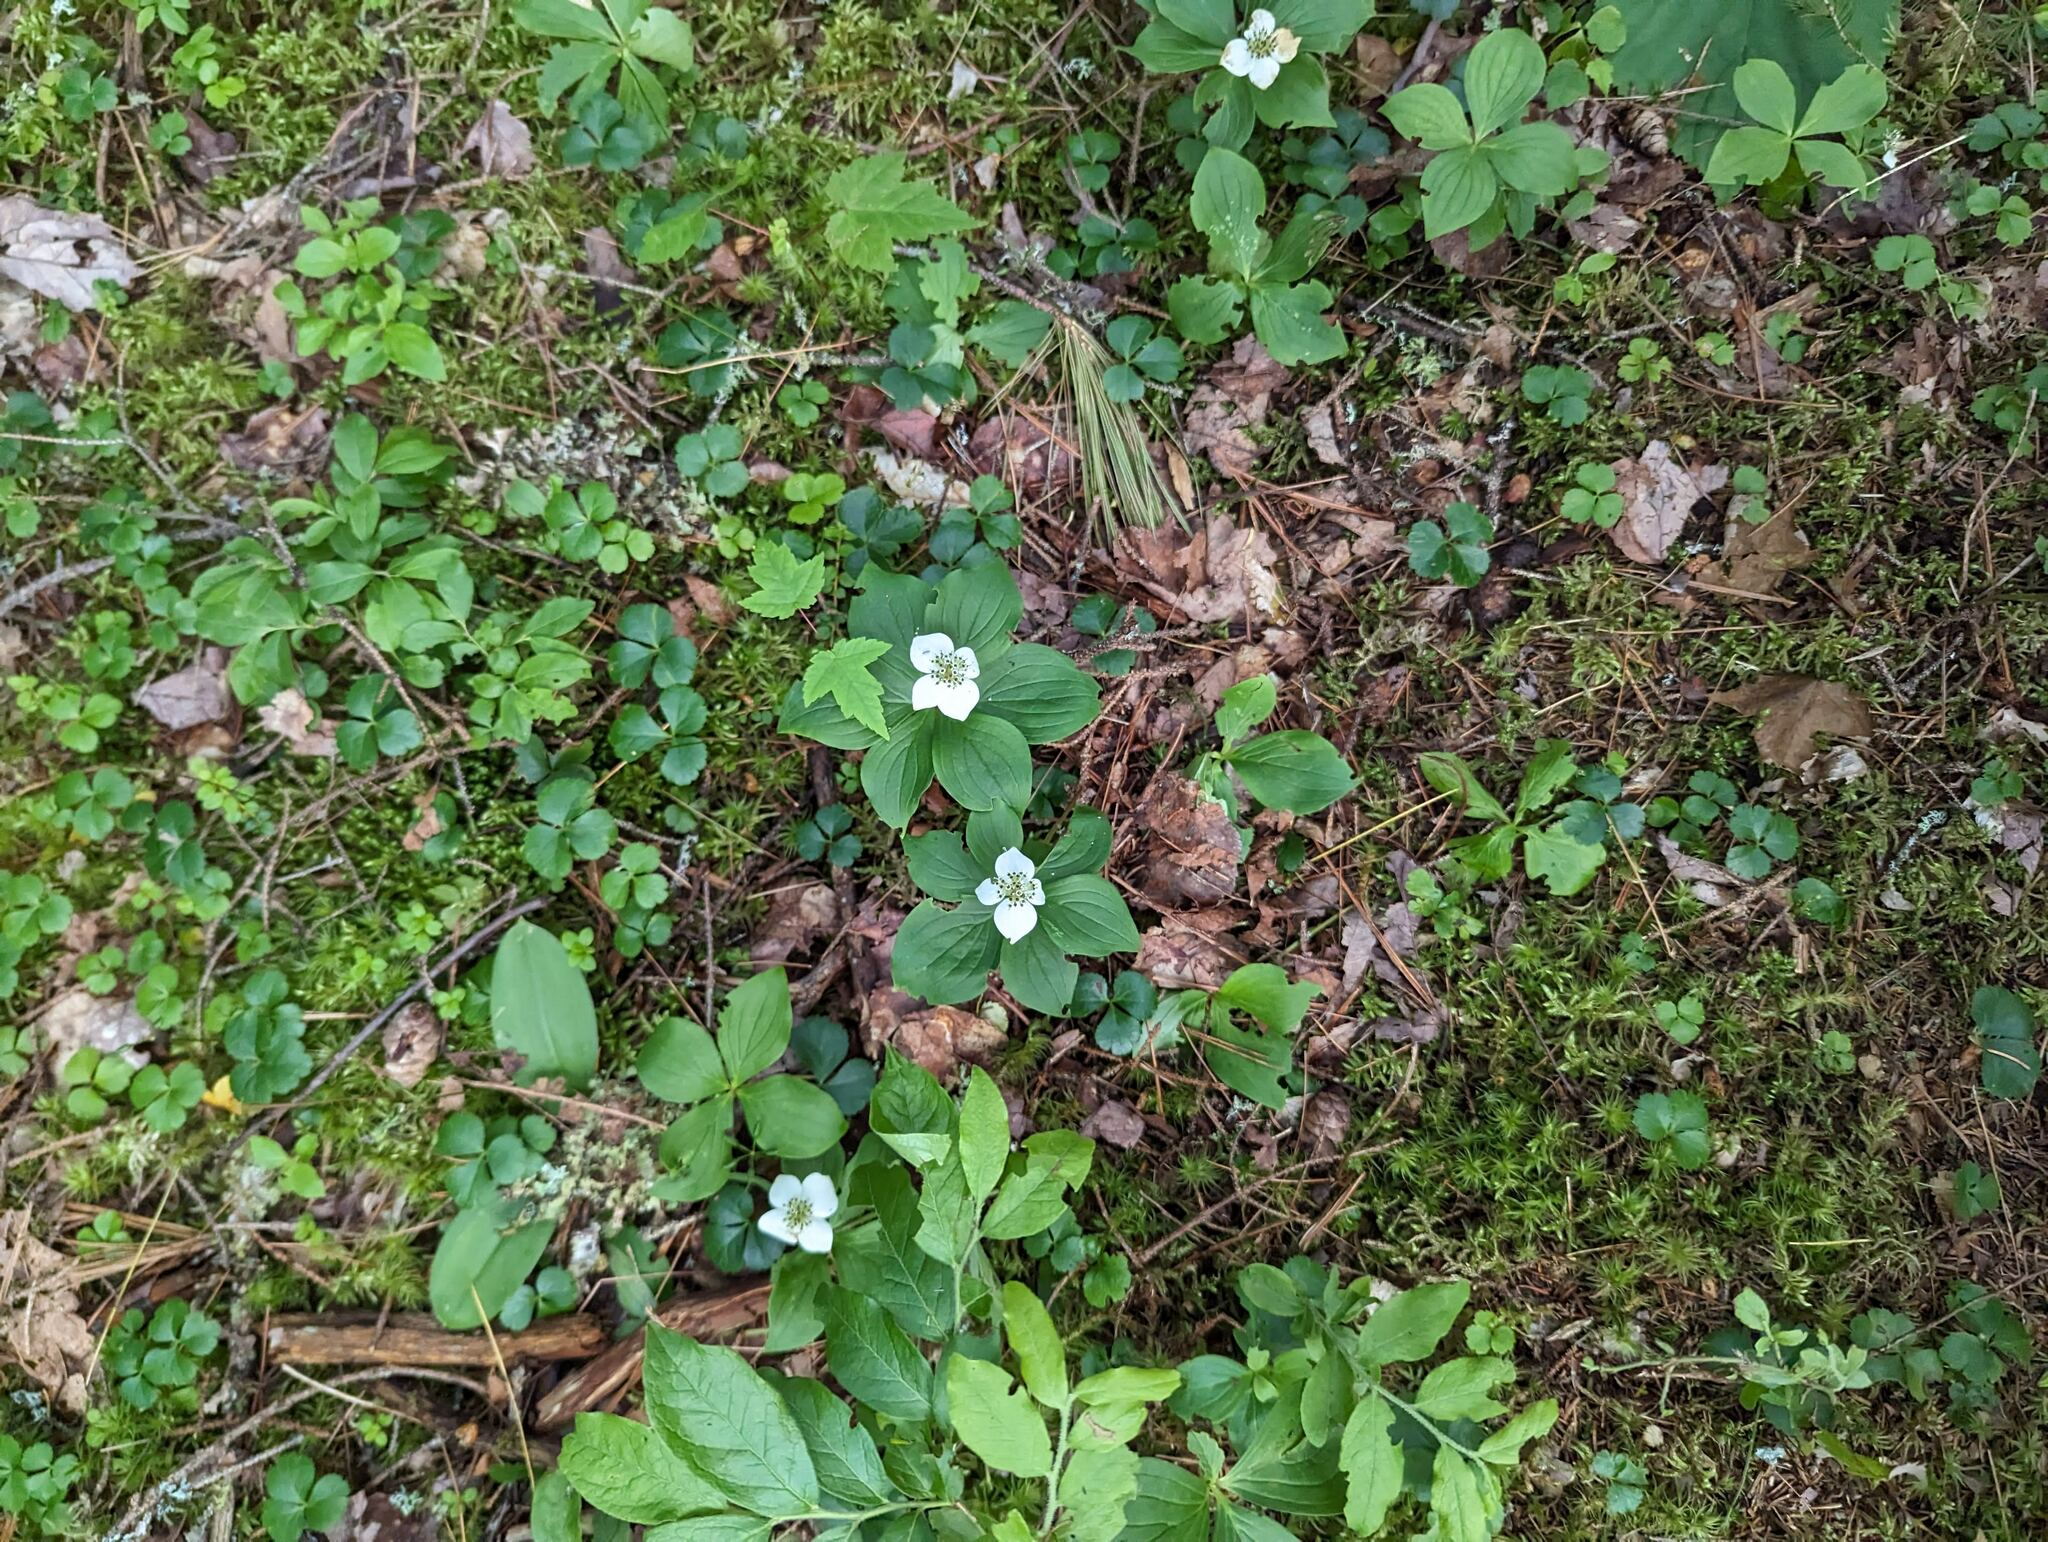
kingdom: Plantae
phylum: Tracheophyta
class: Magnoliopsida
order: Ranunculales
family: Ranunculaceae
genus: Coptis
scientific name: Coptis trifolia
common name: Canker-root
